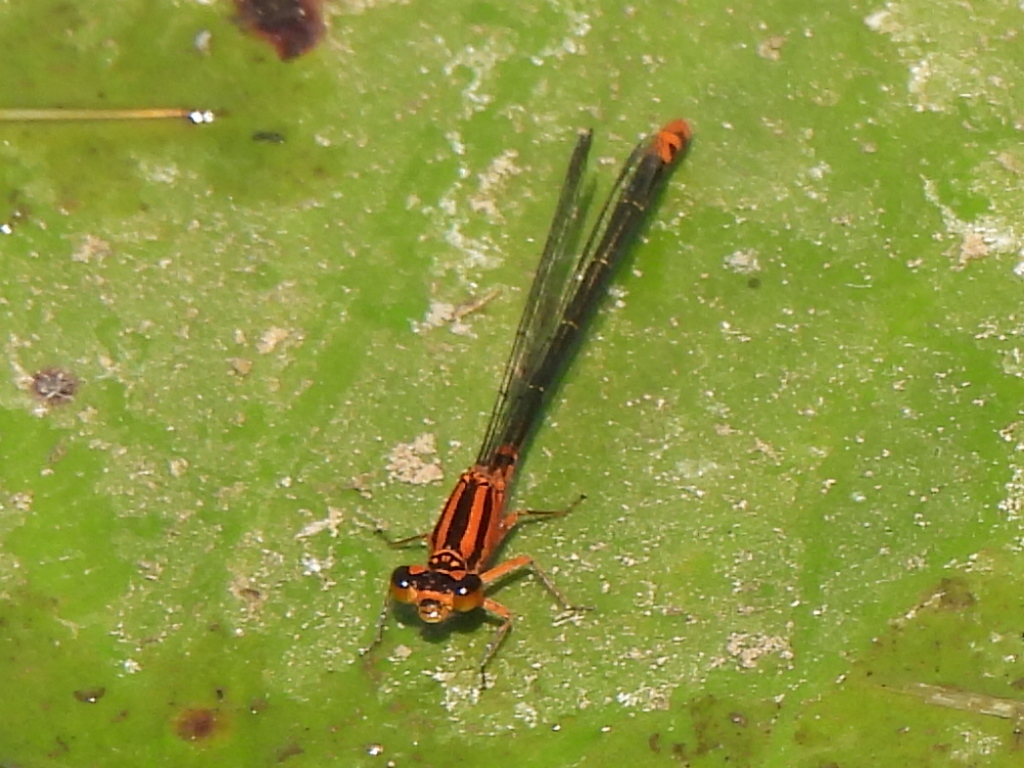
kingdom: Animalia
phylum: Arthropoda
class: Insecta
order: Odonata
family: Coenagrionidae
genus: Ischnura
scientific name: Ischnura kellicotti
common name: Lilypad forktail
